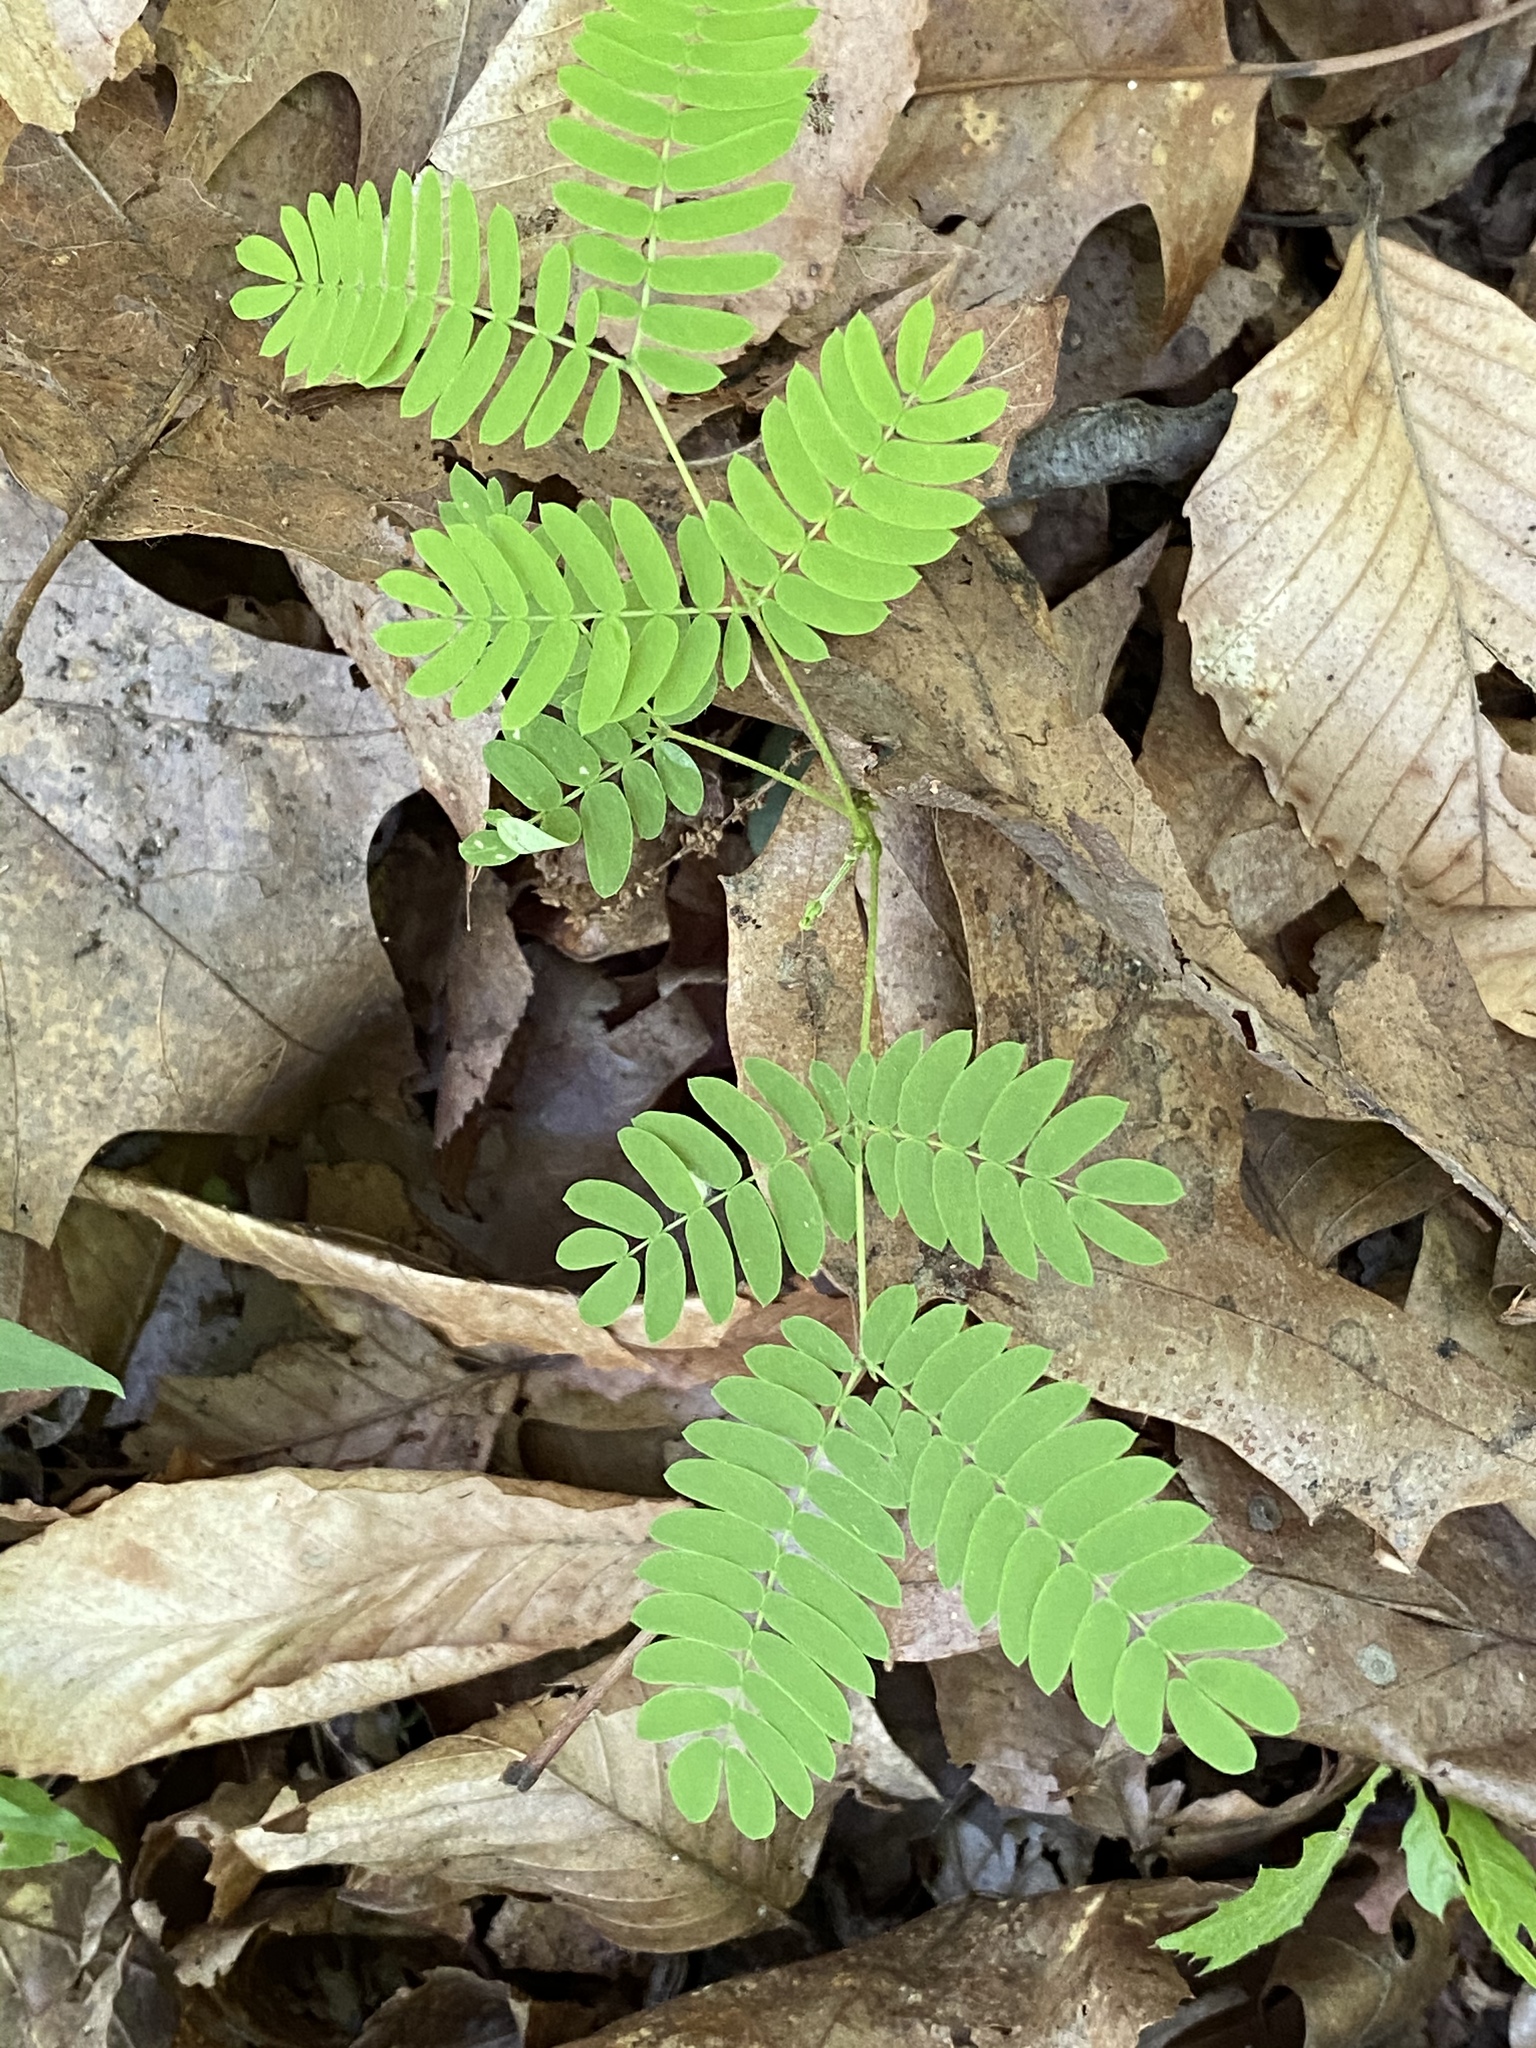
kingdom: Plantae
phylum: Tracheophyta
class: Magnoliopsida
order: Fabales
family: Fabaceae
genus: Albizia
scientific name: Albizia julibrissin
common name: Silktree
